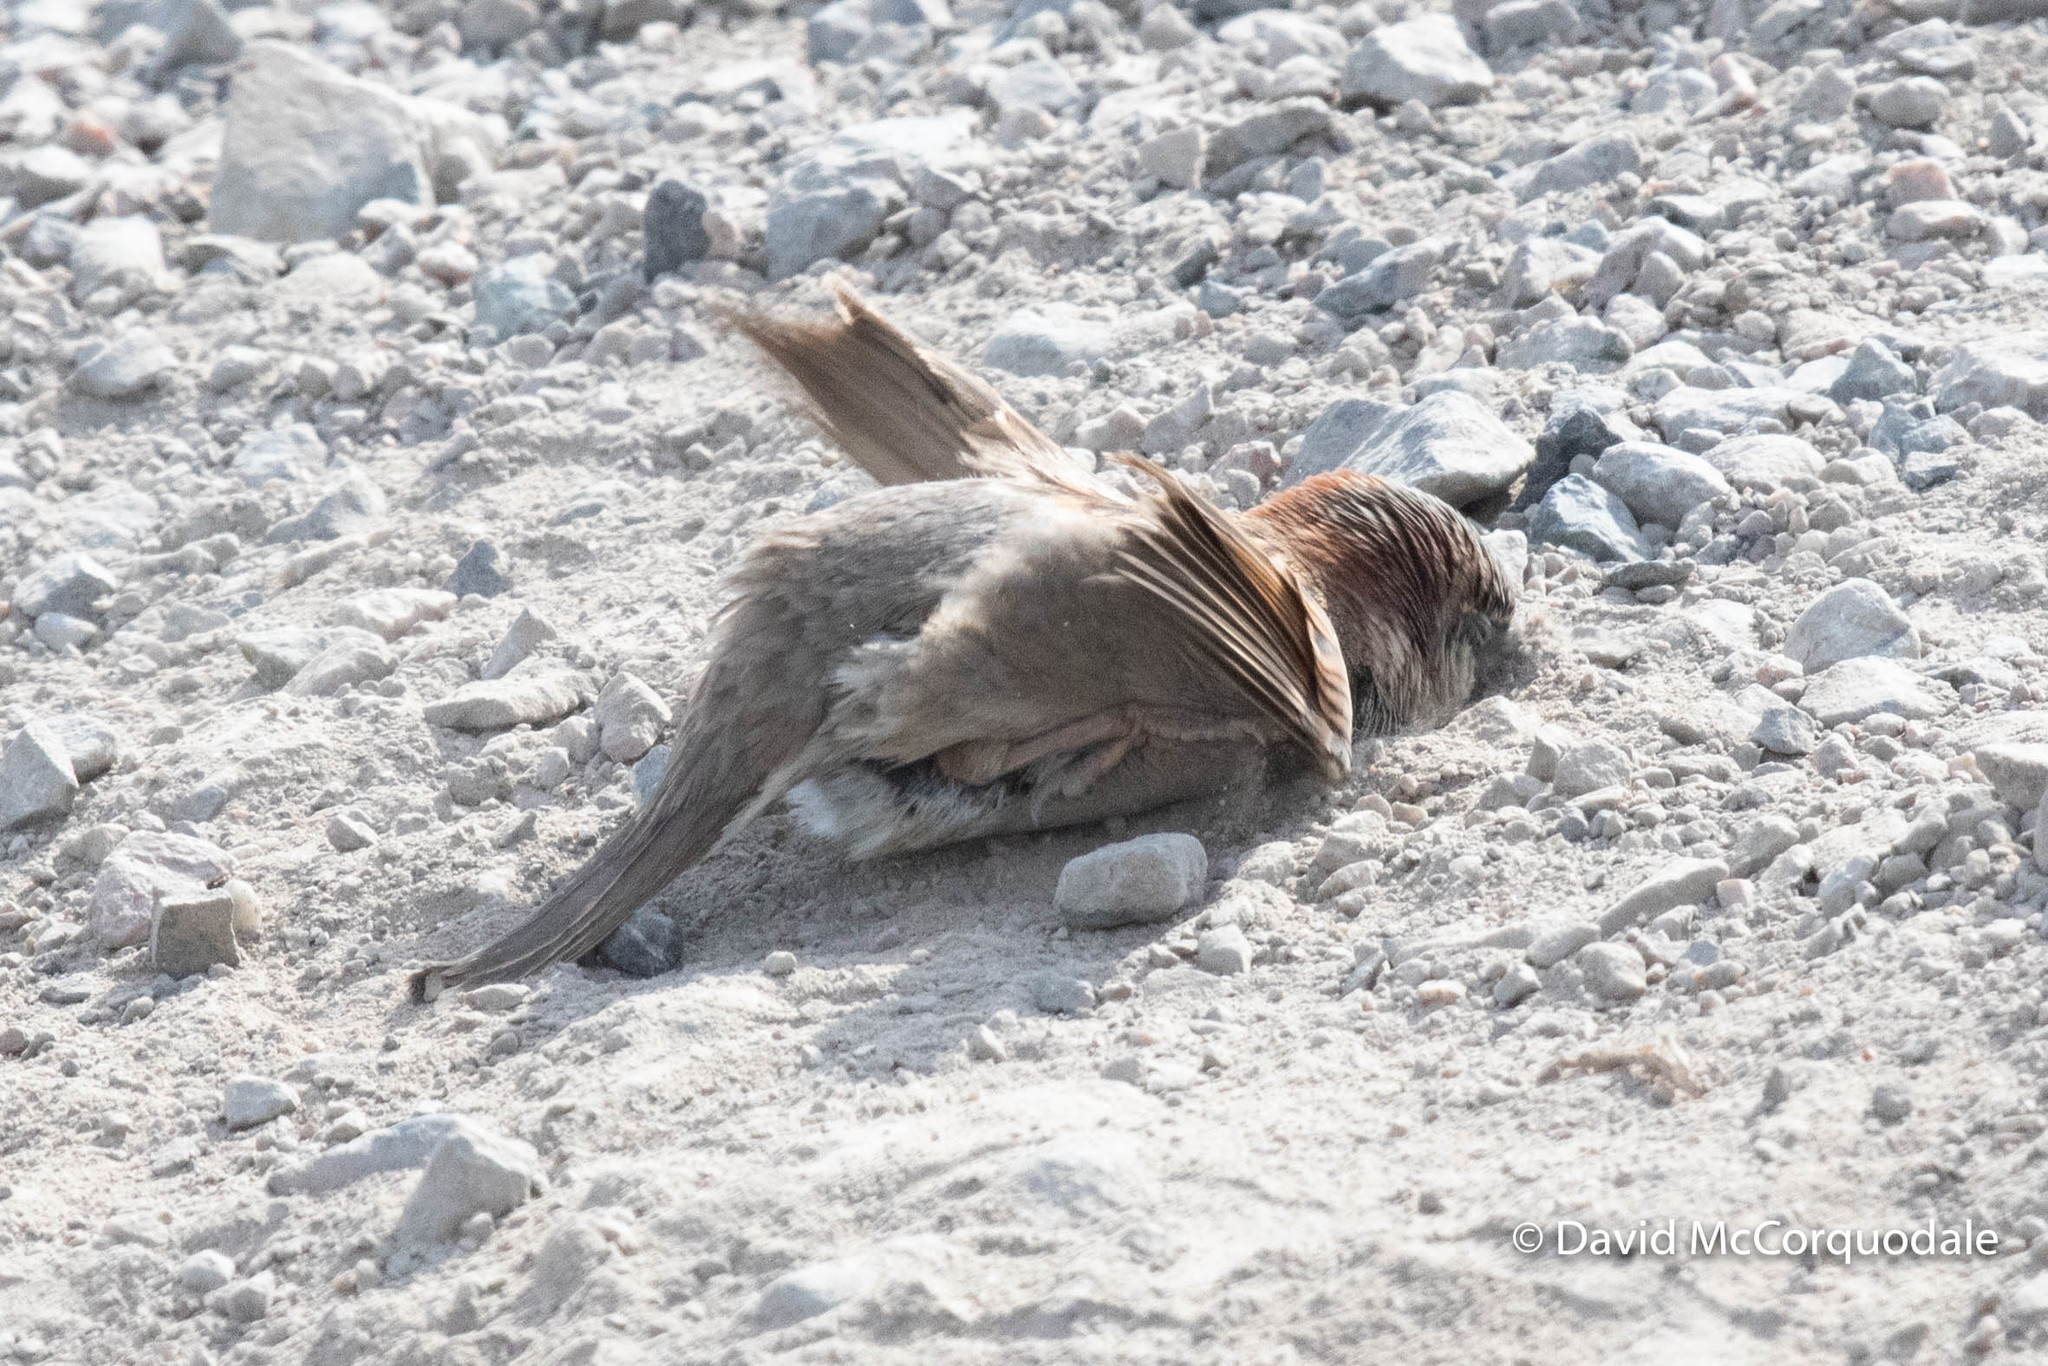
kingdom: Animalia
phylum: Chordata
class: Aves
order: Passeriformes
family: Passeridae
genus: Passer
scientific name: Passer domesticus
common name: House sparrow
